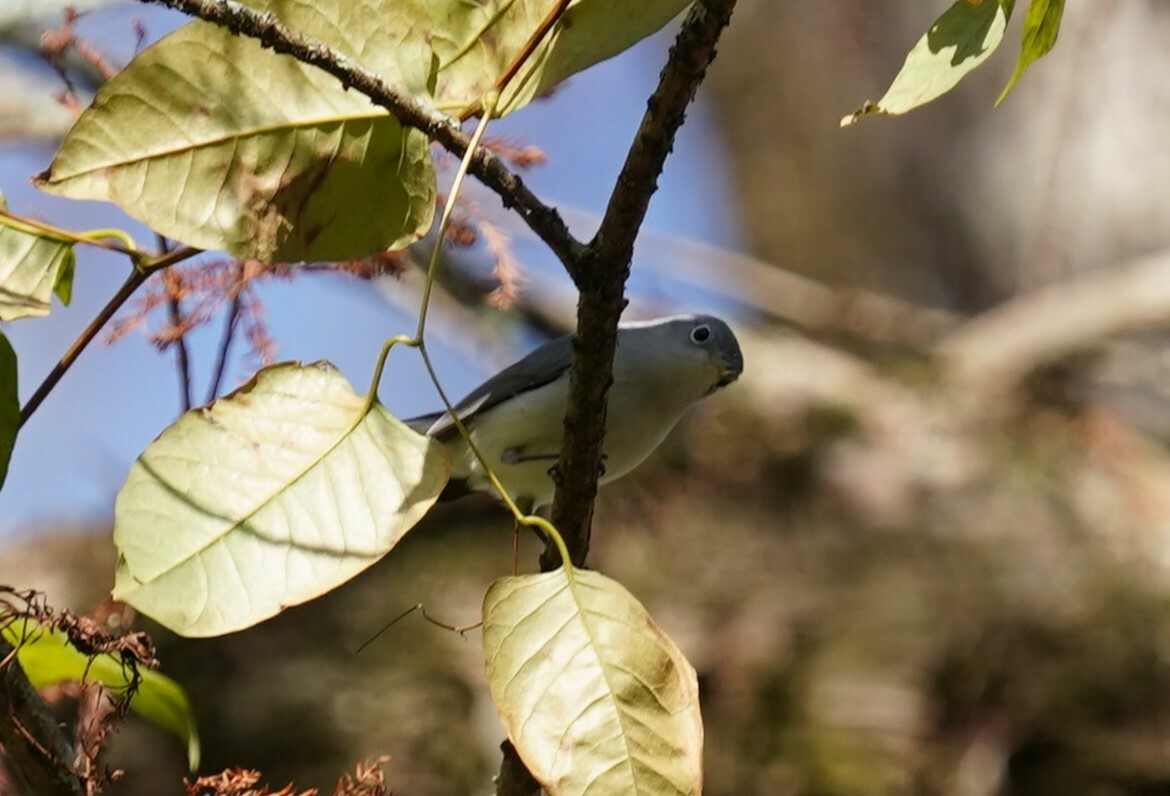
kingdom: Animalia
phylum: Chordata
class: Aves
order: Passeriformes
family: Polioptilidae
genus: Polioptila
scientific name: Polioptila caerulea
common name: Blue-gray gnatcatcher
